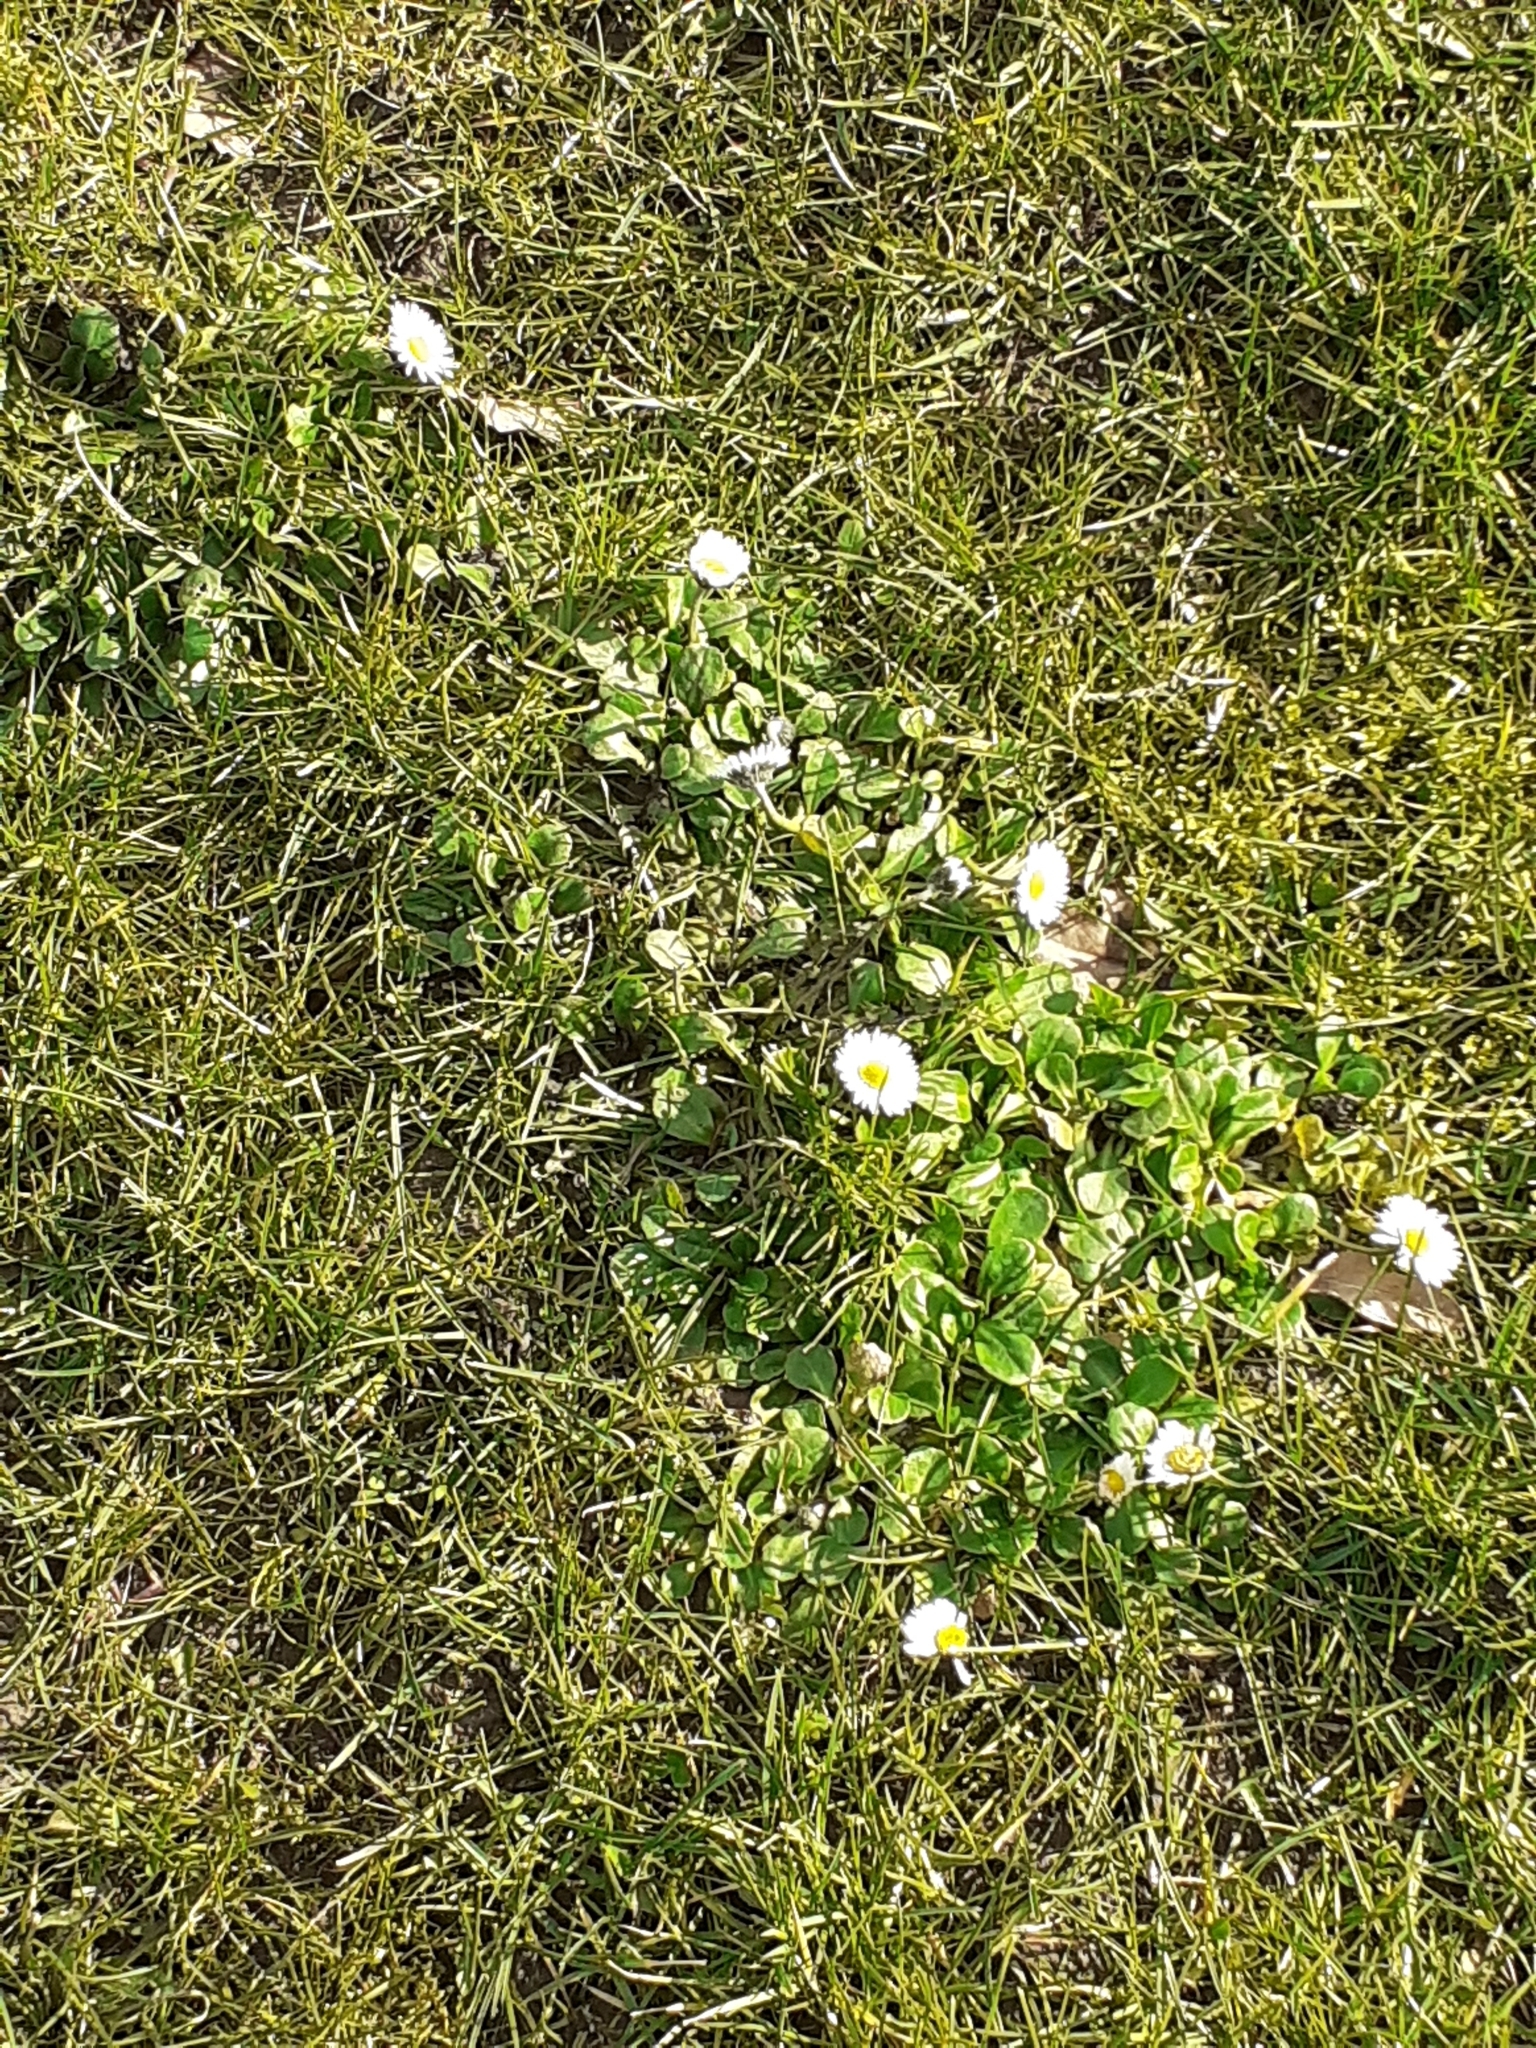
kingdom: Plantae
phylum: Tracheophyta
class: Magnoliopsida
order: Asterales
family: Asteraceae
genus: Bellis
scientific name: Bellis perennis
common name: Lawndaisy
